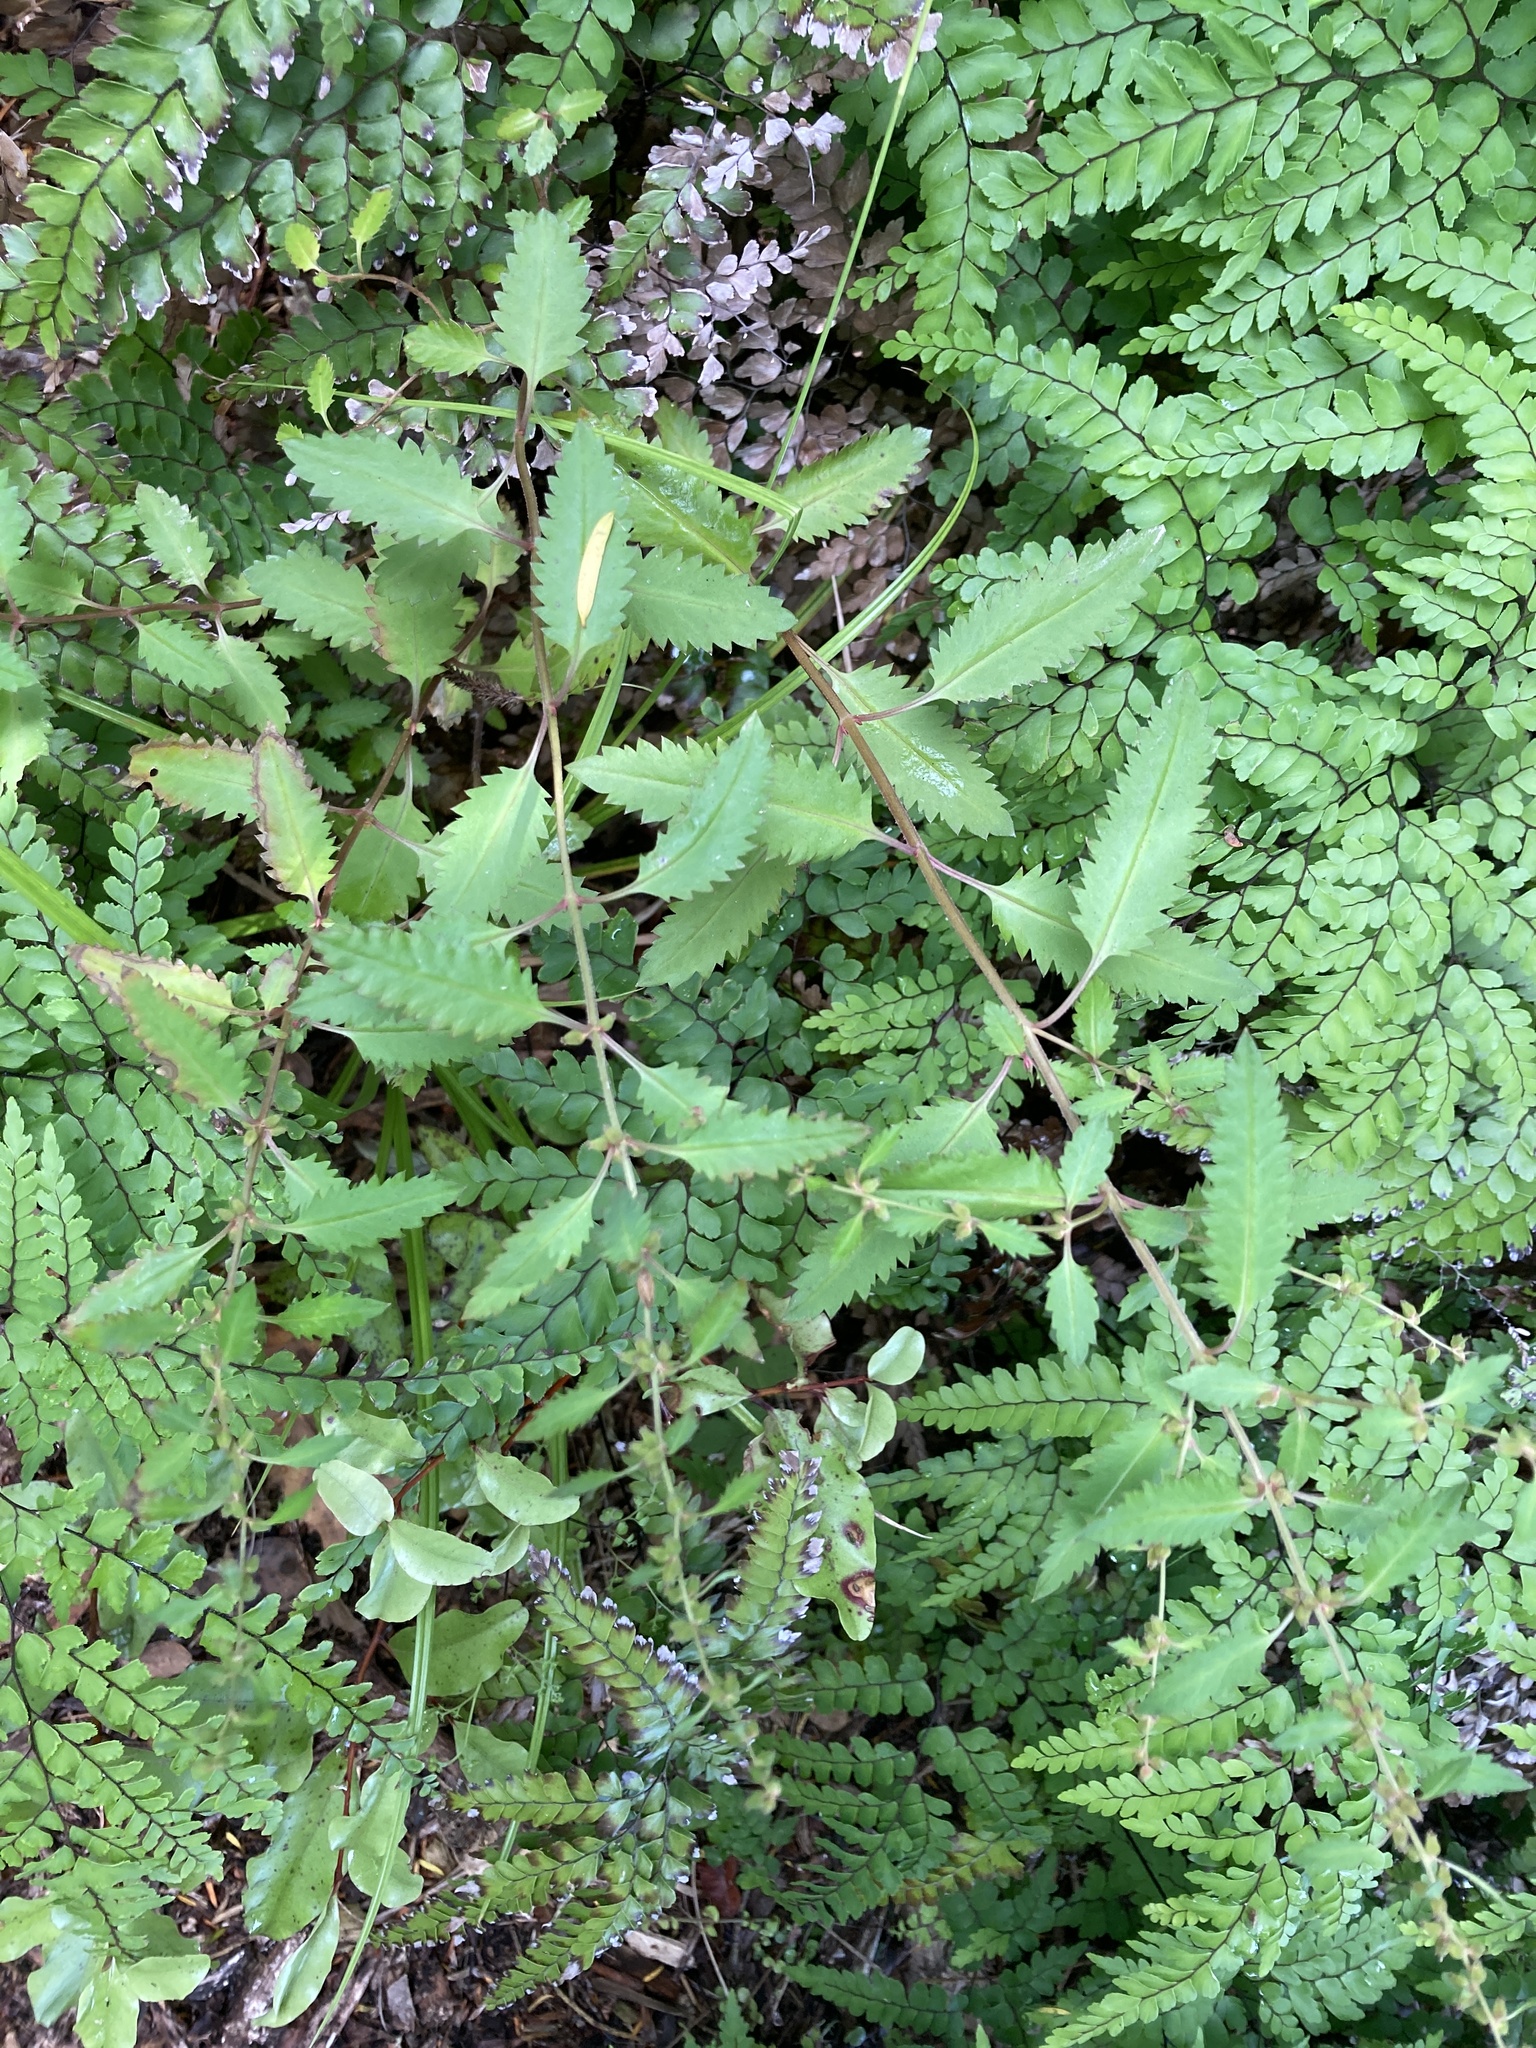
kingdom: Plantae
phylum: Tracheophyta
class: Magnoliopsida
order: Saxifragales
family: Haloragaceae
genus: Haloragis
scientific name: Haloragis erecta
